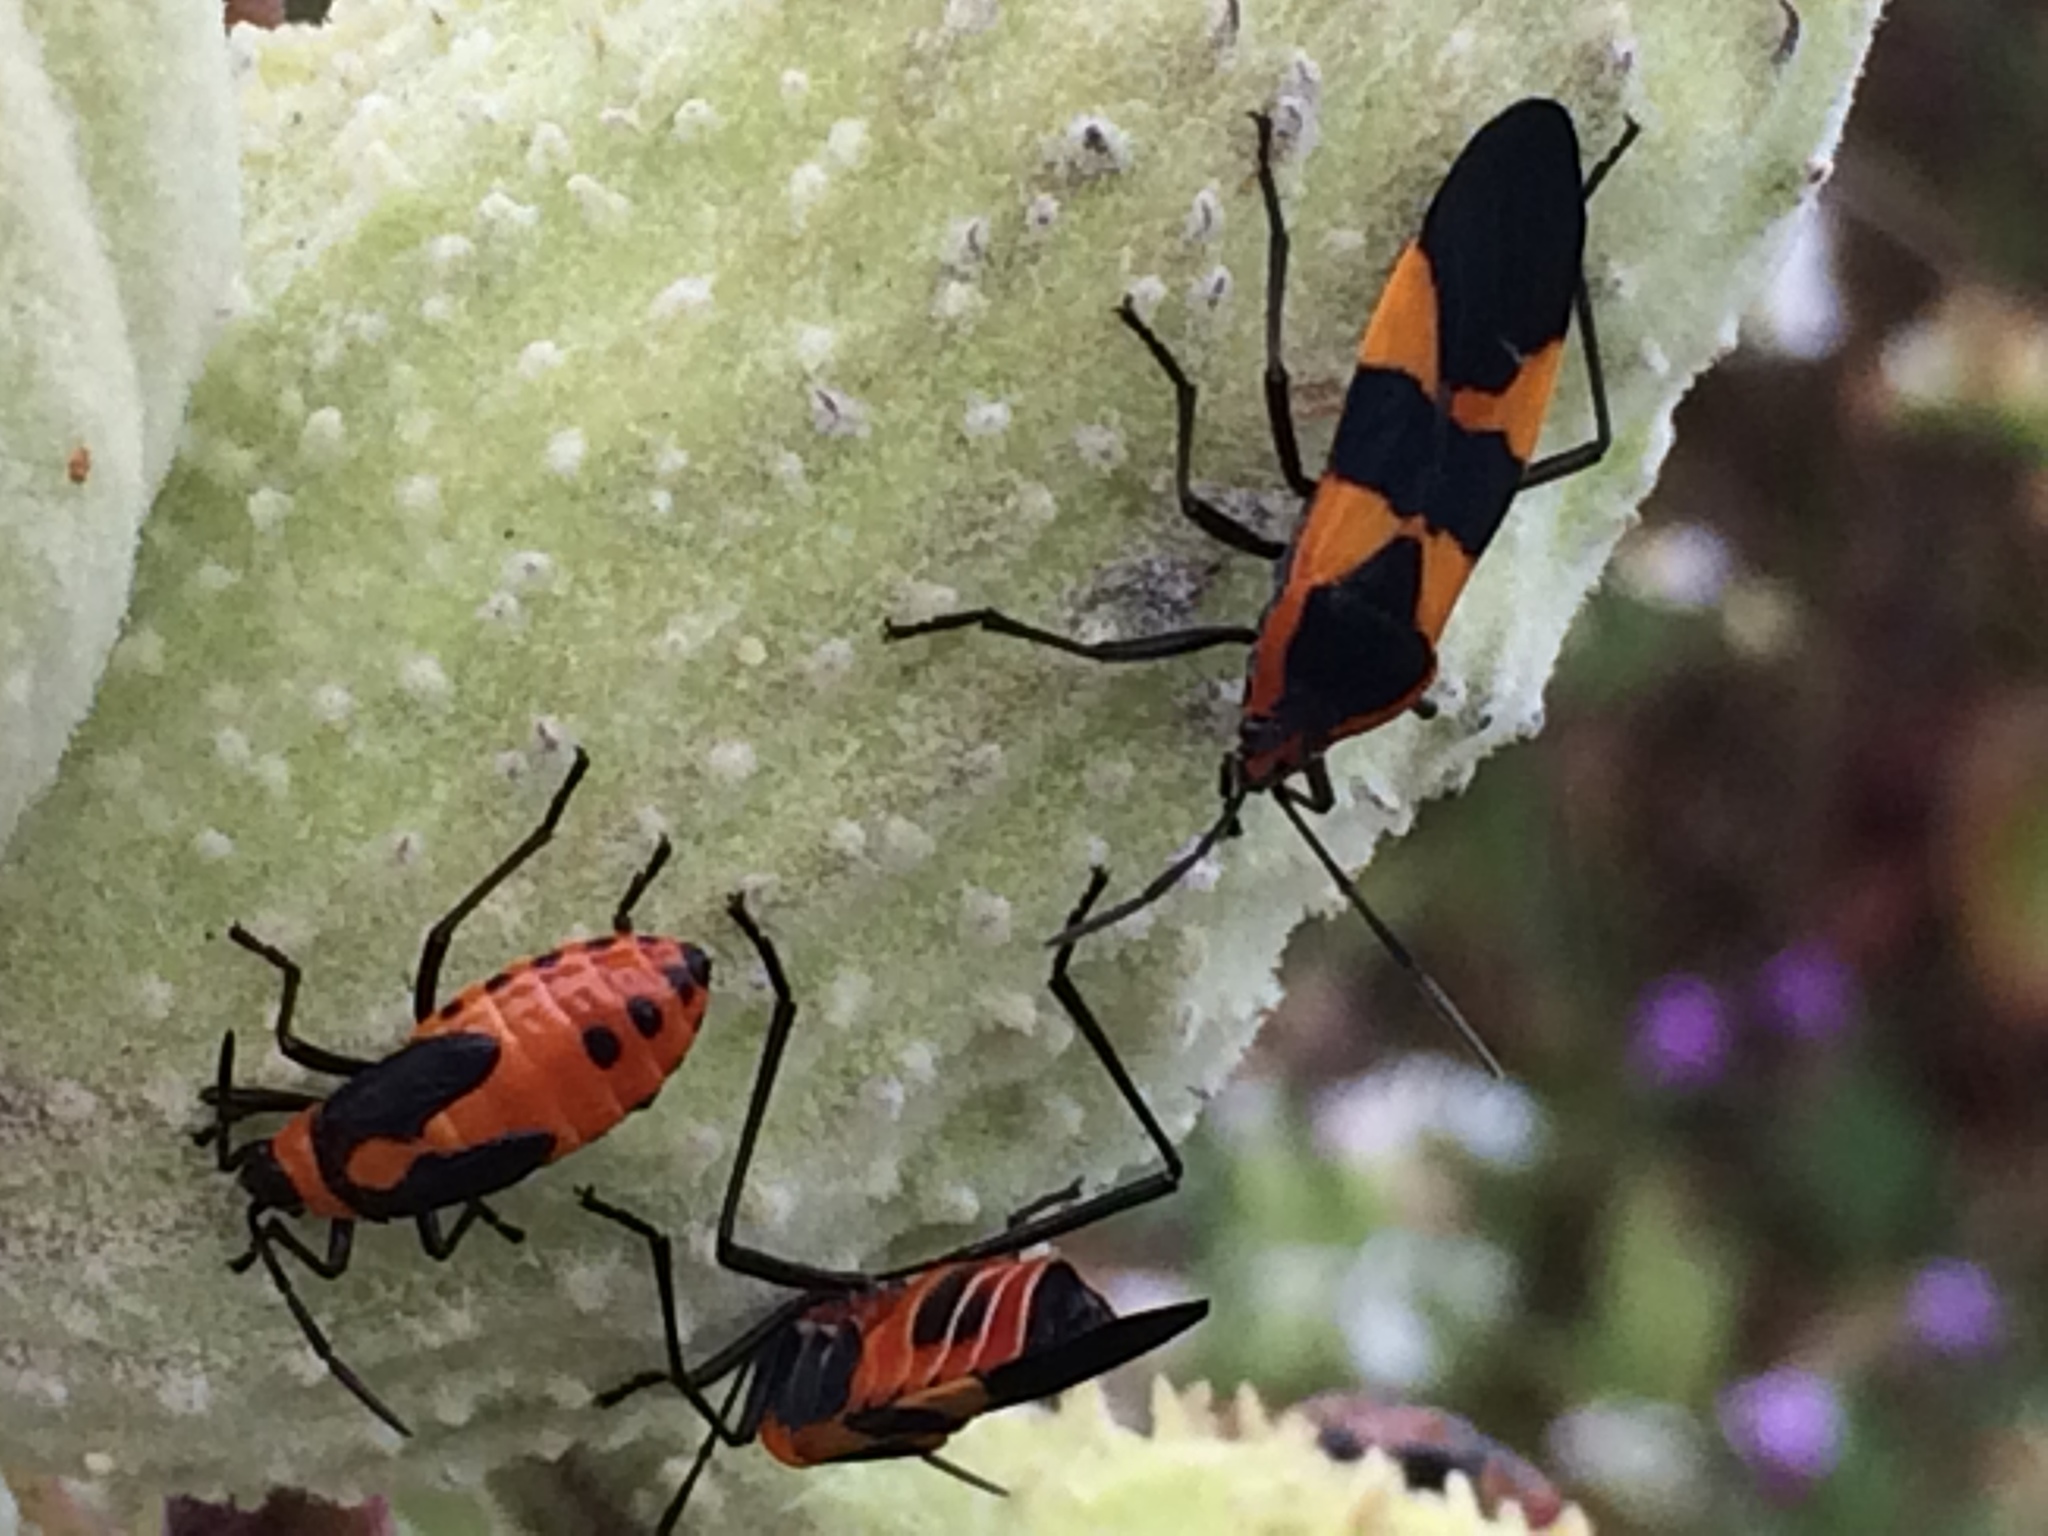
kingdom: Animalia
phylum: Arthropoda
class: Insecta
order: Hemiptera
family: Lygaeidae
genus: Oncopeltus
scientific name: Oncopeltus fasciatus
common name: Large milkweed bug
